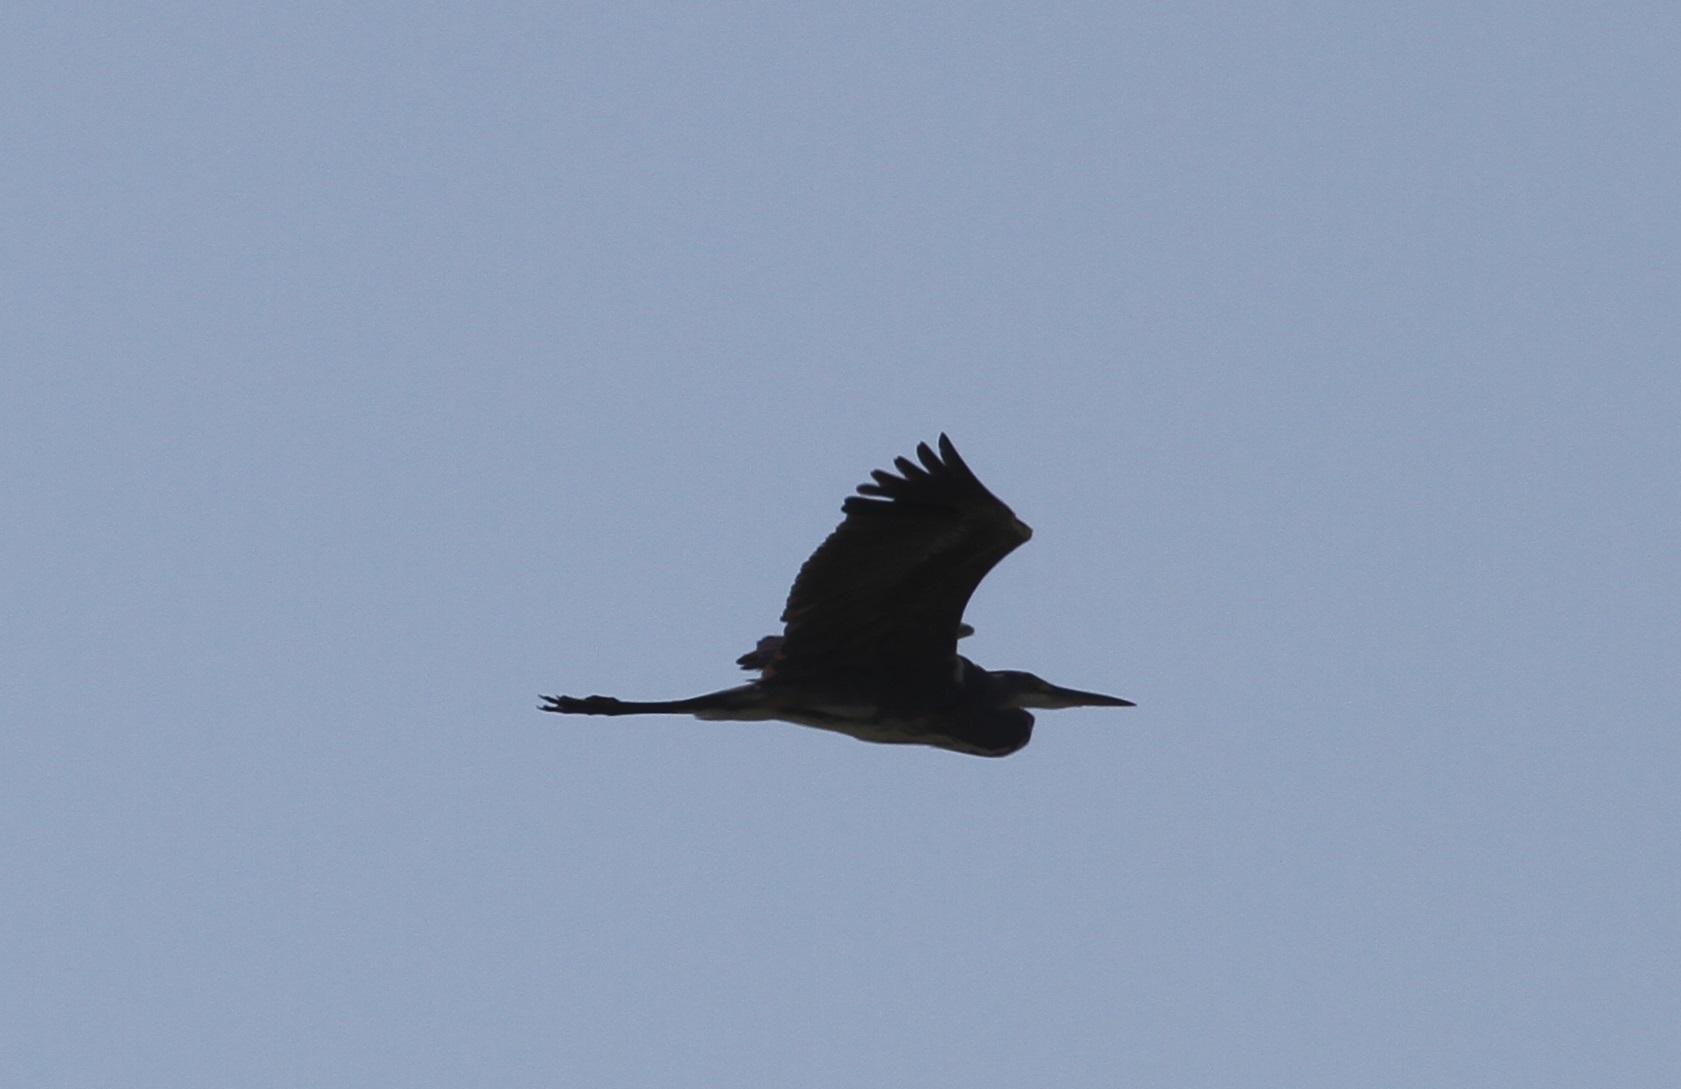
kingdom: Animalia
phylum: Chordata
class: Aves
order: Pelecaniformes
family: Ardeidae
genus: Ardea
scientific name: Ardea cinerea
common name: Grey heron
